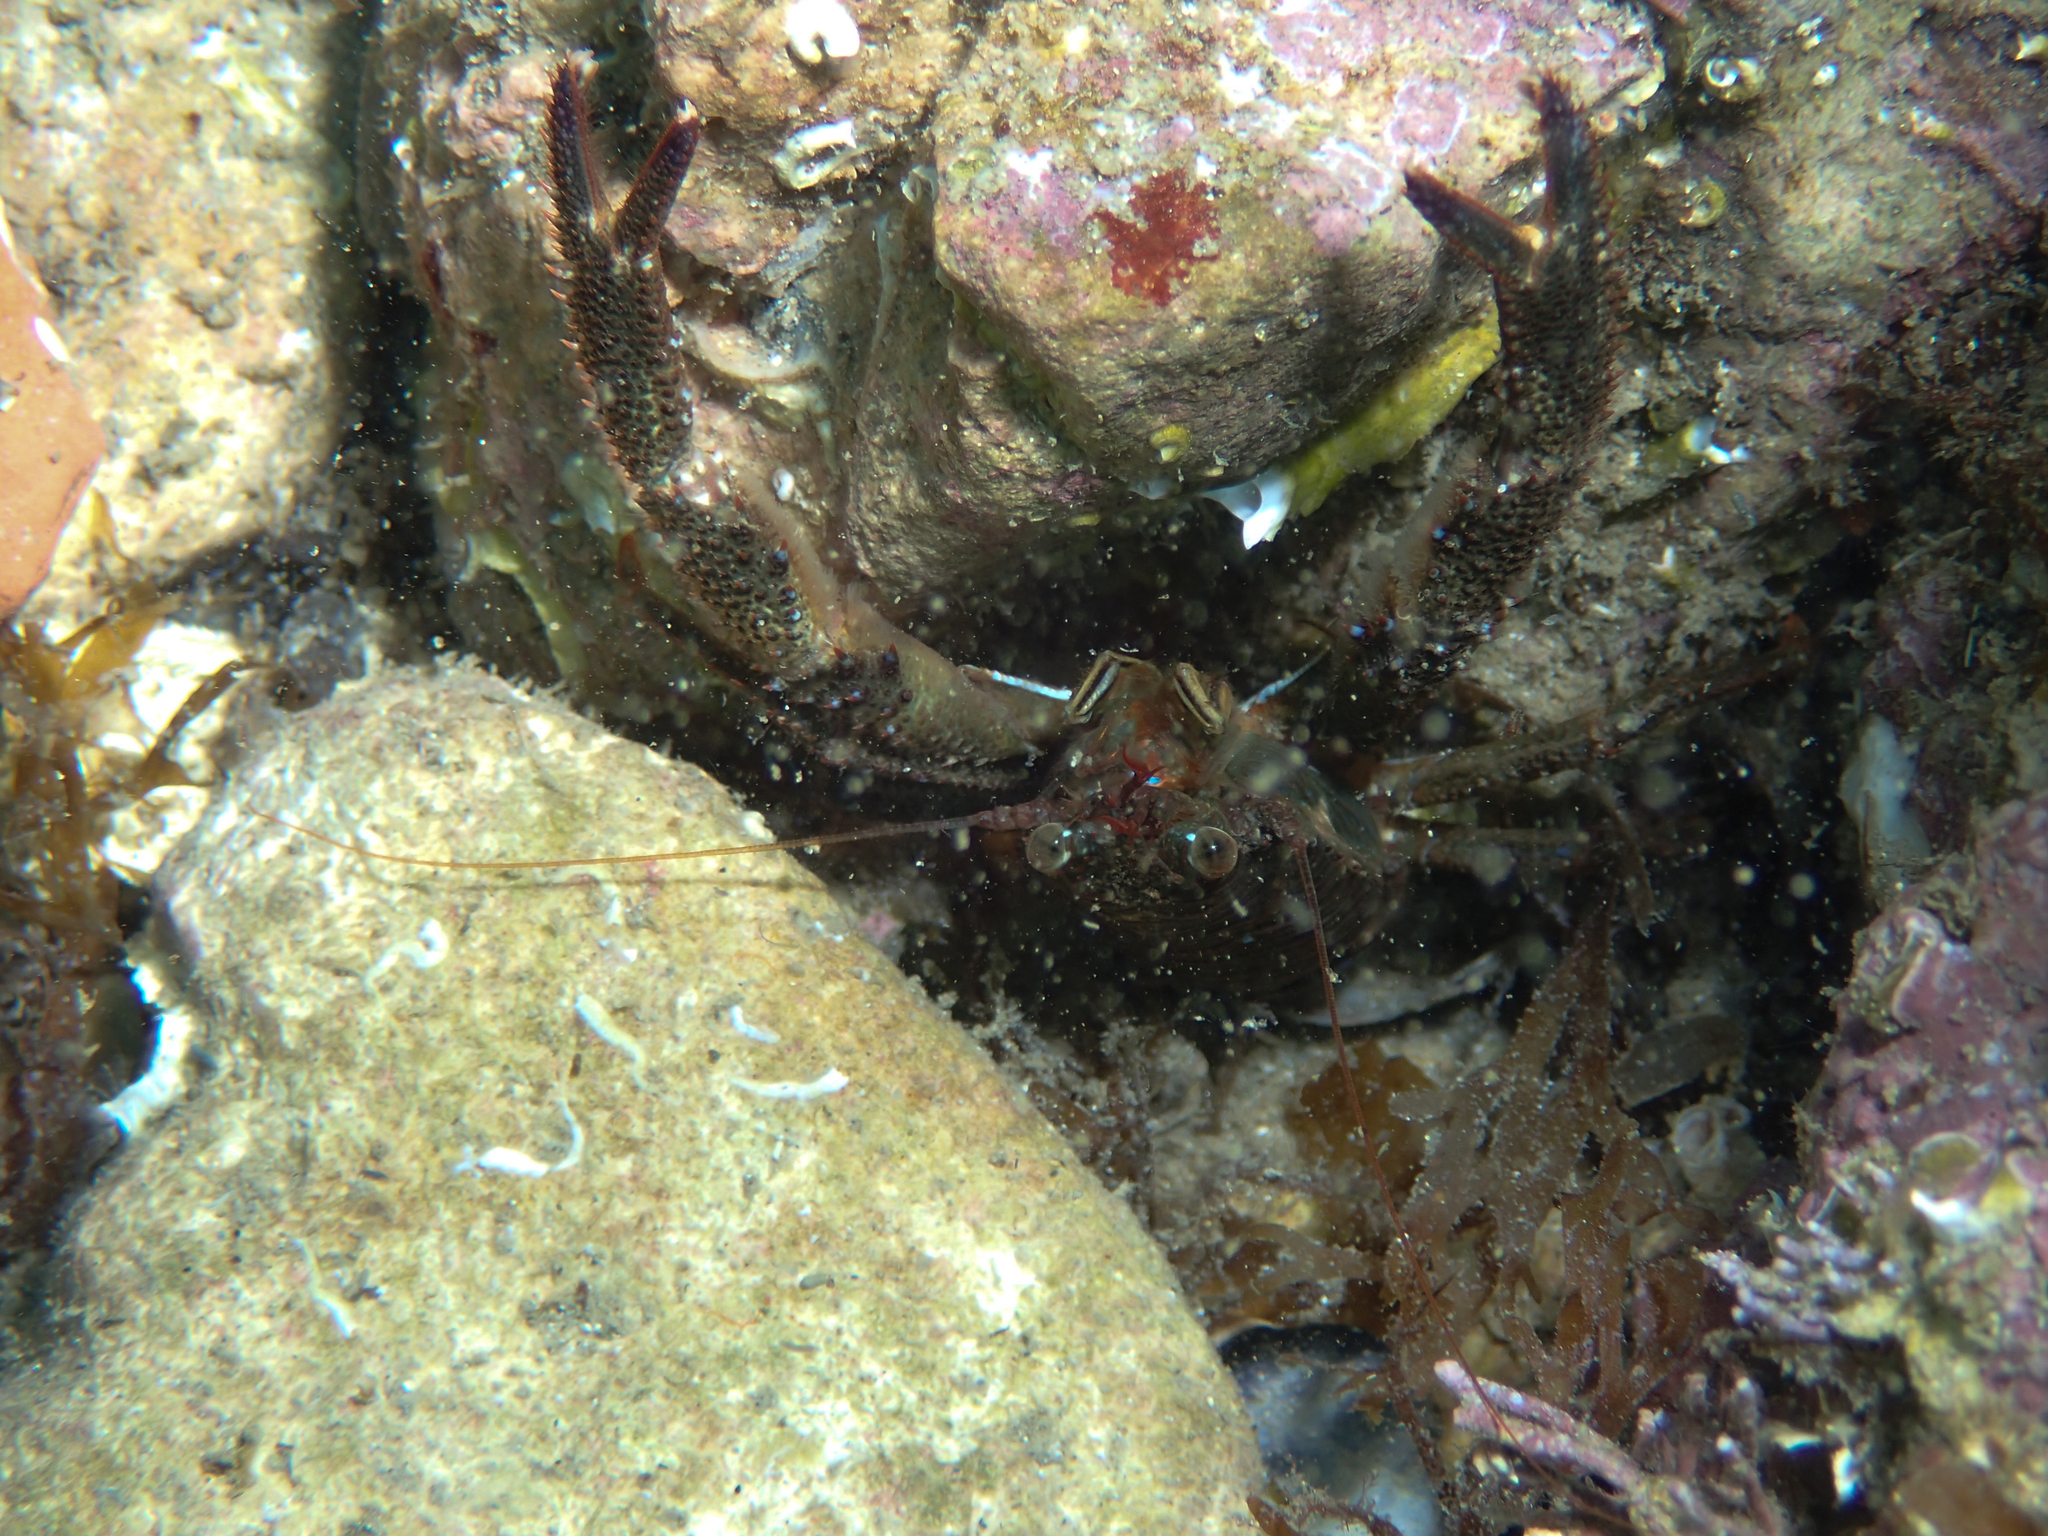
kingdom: Animalia
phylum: Arthropoda
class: Malacostraca
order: Decapoda
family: Galatheidae
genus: Galathea
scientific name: Galathea squamifera
